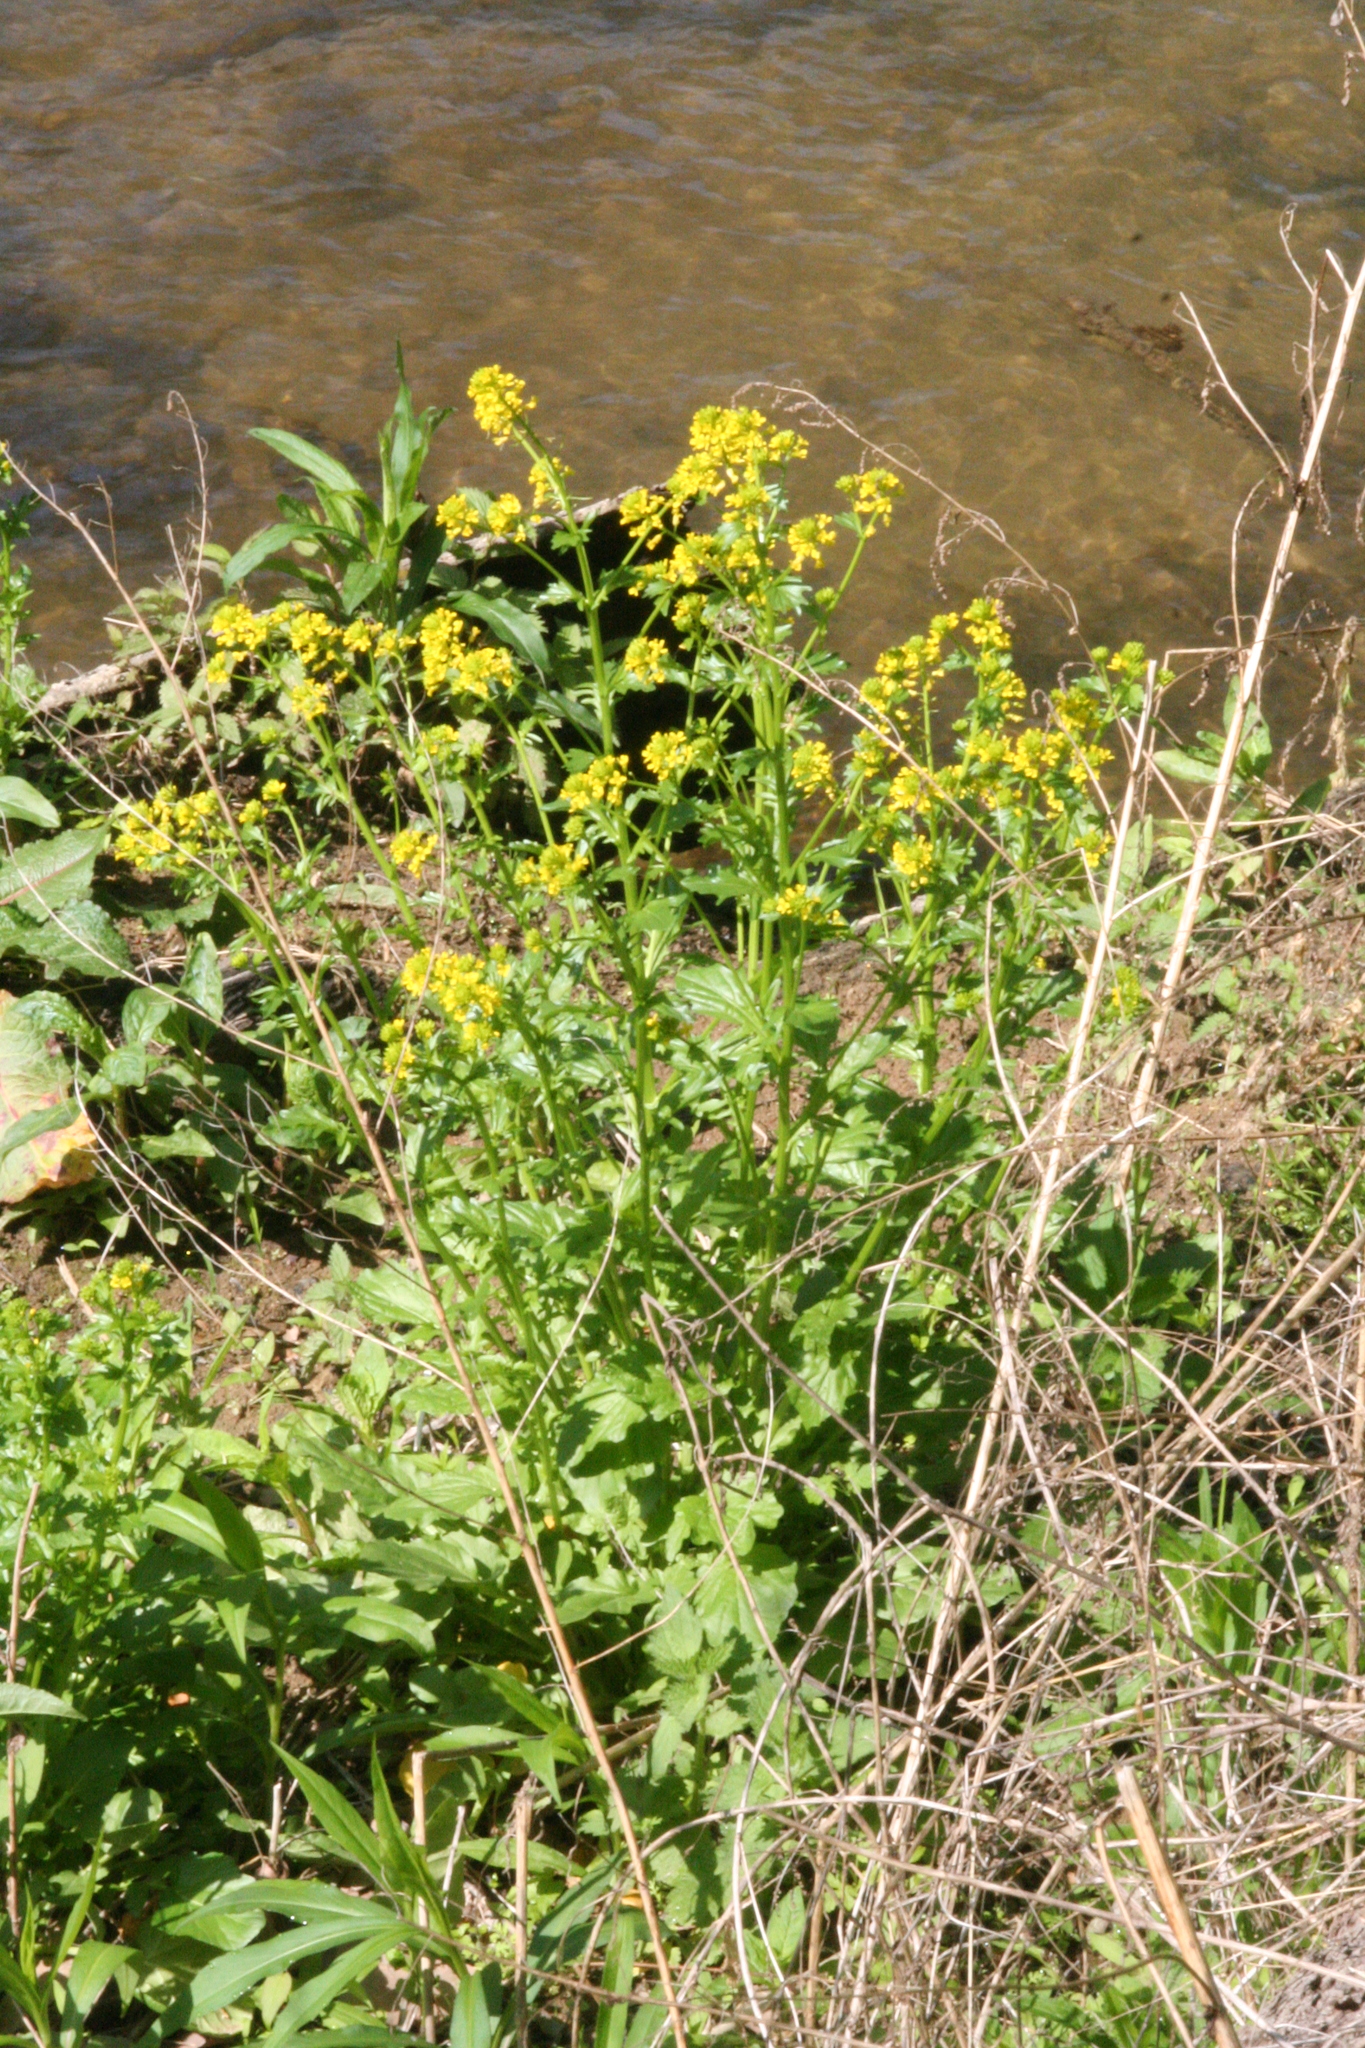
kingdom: Plantae
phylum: Tracheophyta
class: Magnoliopsida
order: Brassicales
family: Brassicaceae
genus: Barbarea
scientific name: Barbarea vulgaris
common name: Cressy-greens
